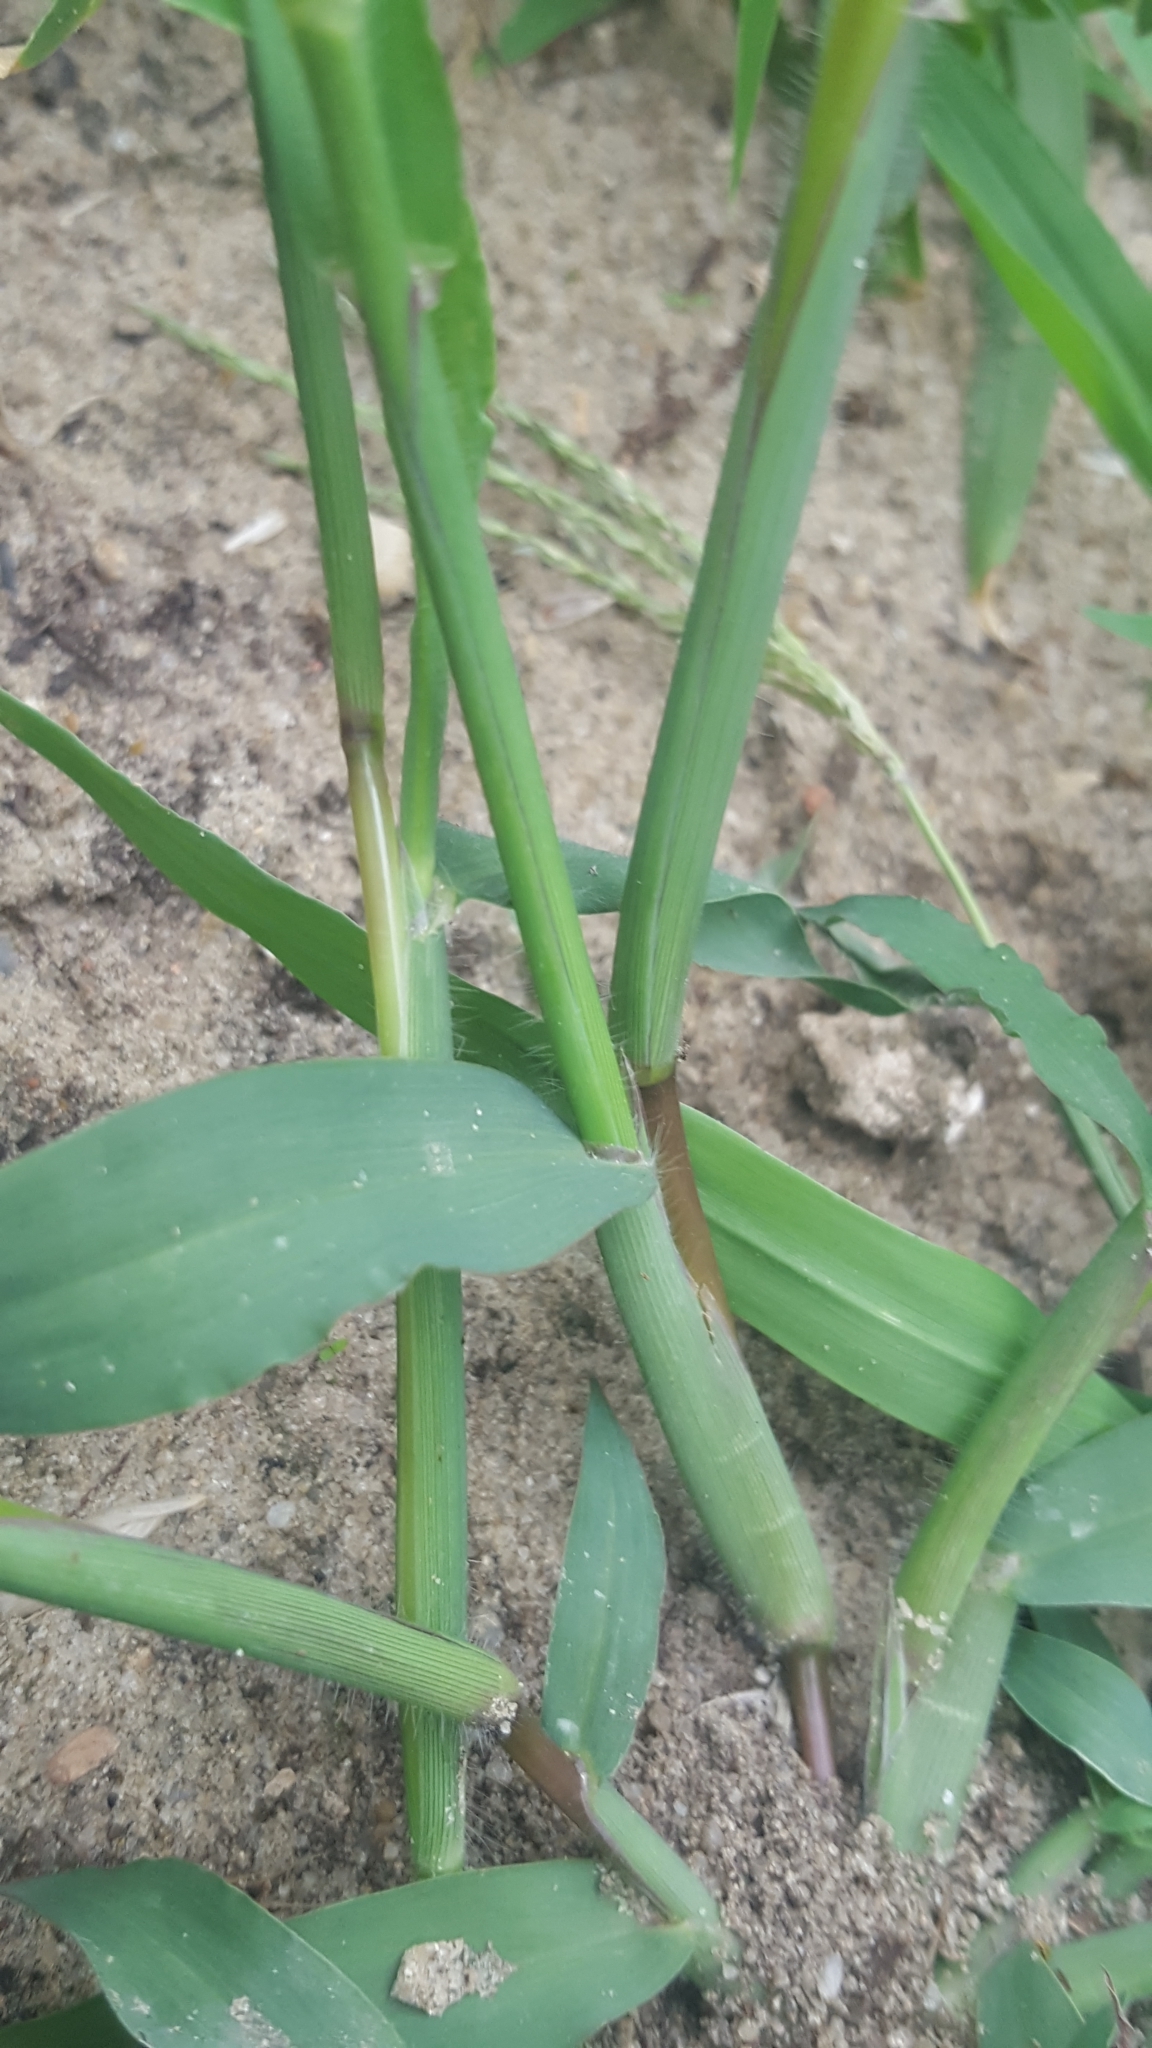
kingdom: Plantae
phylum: Tracheophyta
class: Liliopsida
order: Poales
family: Poaceae
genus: Digitaria
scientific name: Digitaria sanguinalis
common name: Hairy crabgrass
